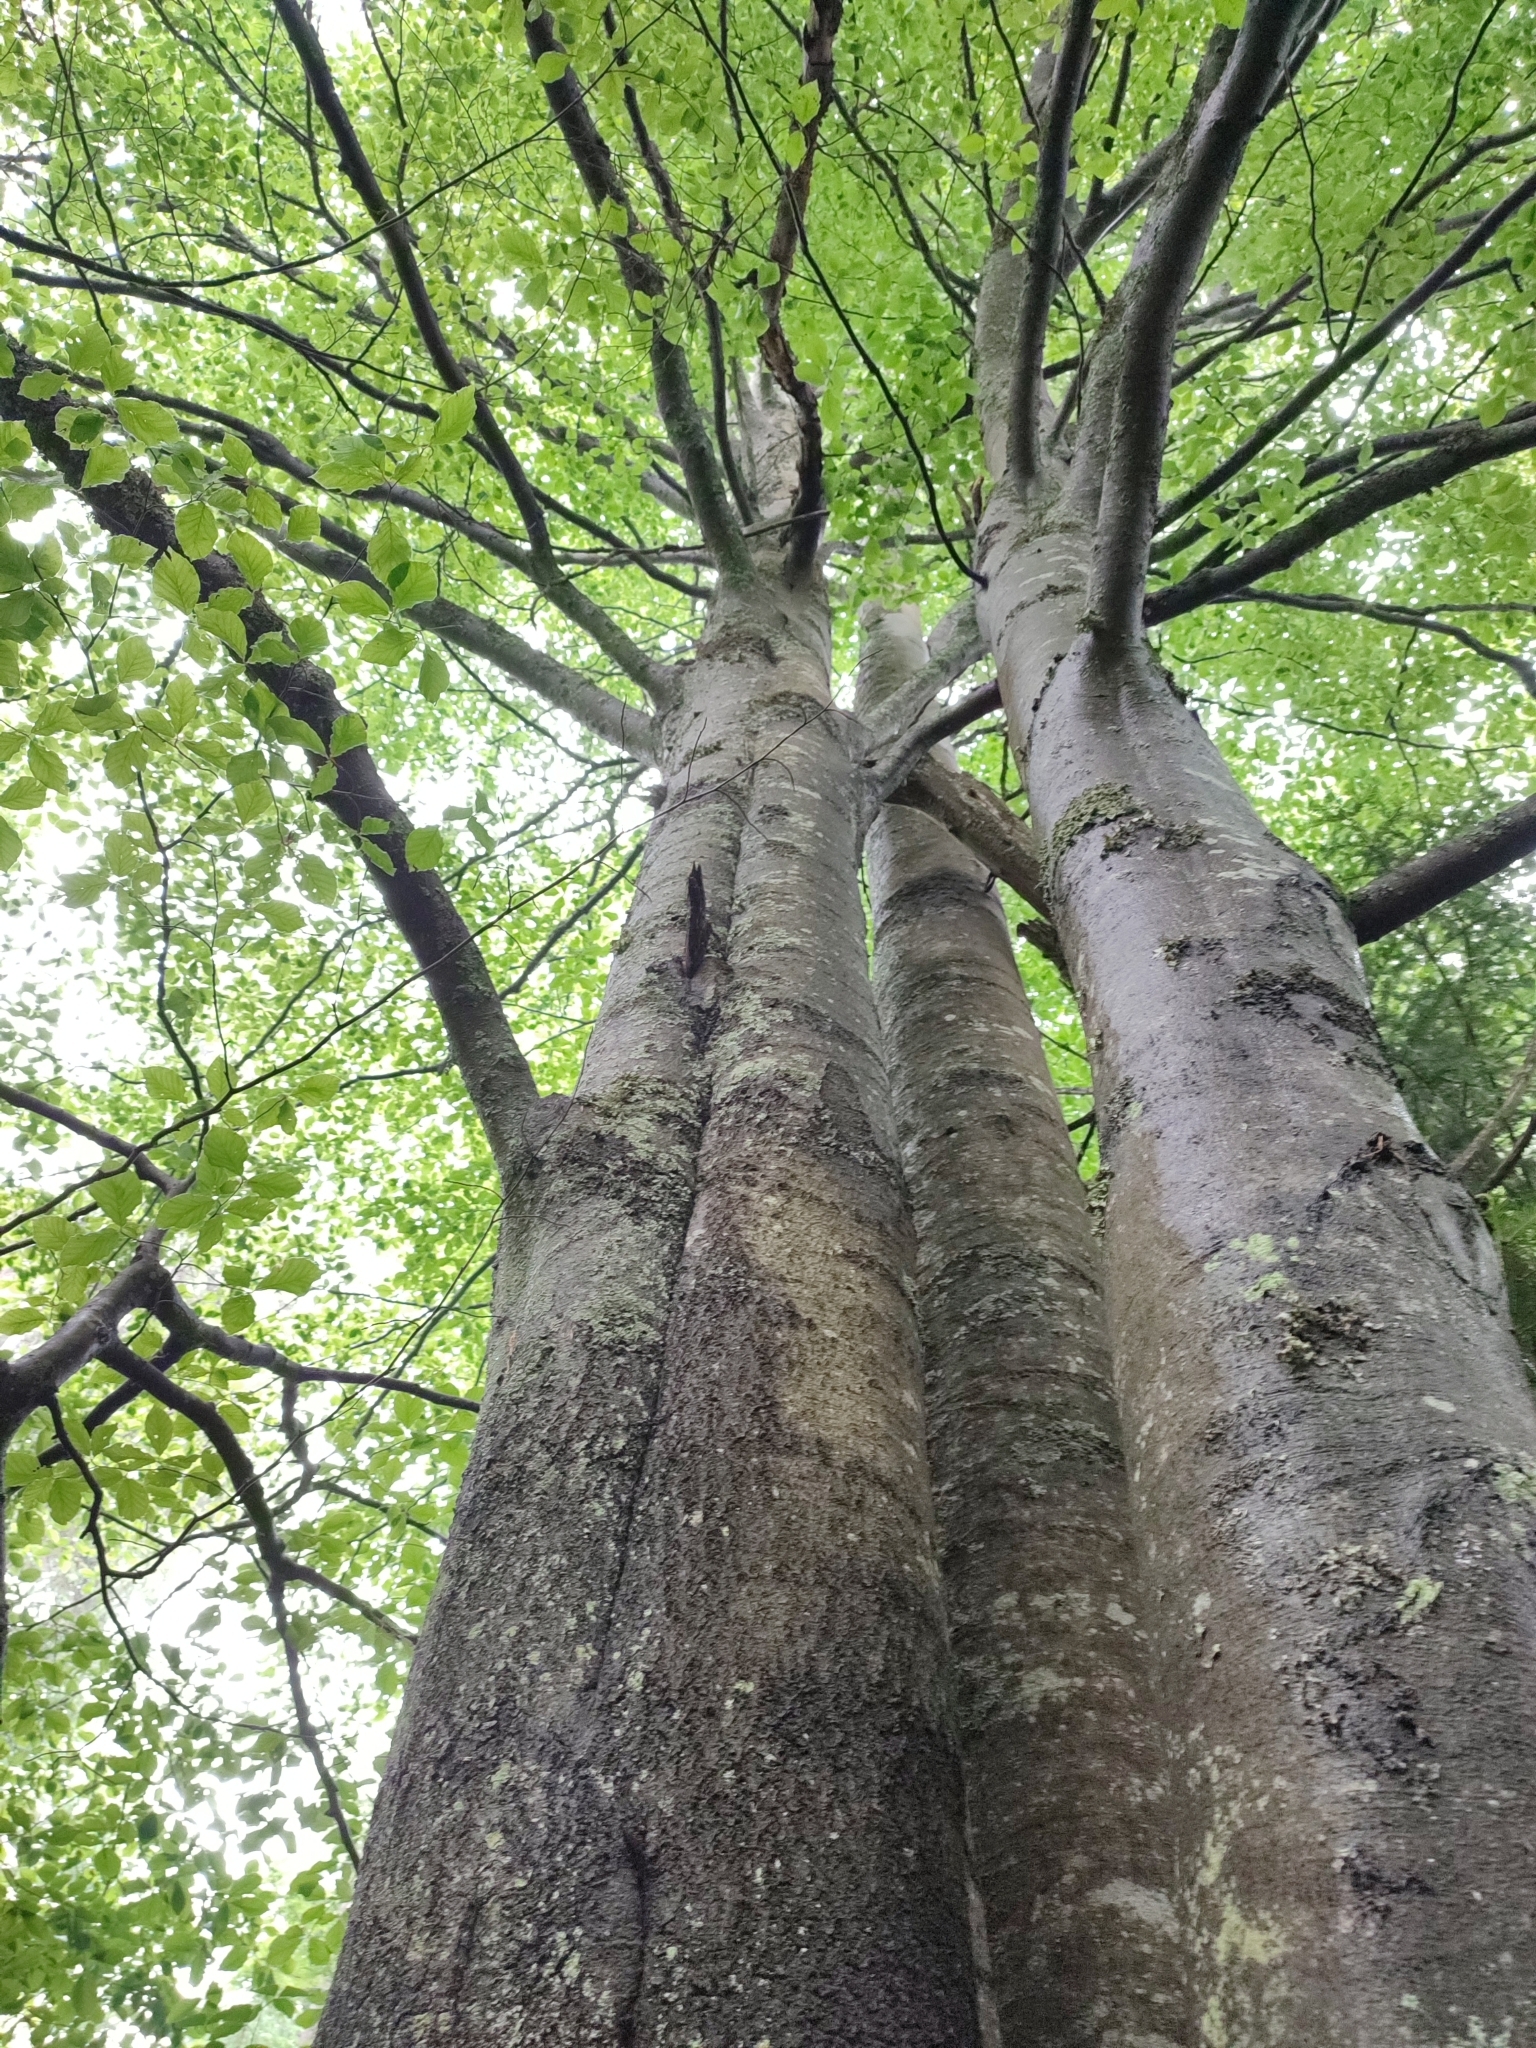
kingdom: Plantae
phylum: Tracheophyta
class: Magnoliopsida
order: Fagales
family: Fagaceae
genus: Fagus
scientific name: Fagus sylvatica
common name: Beech
